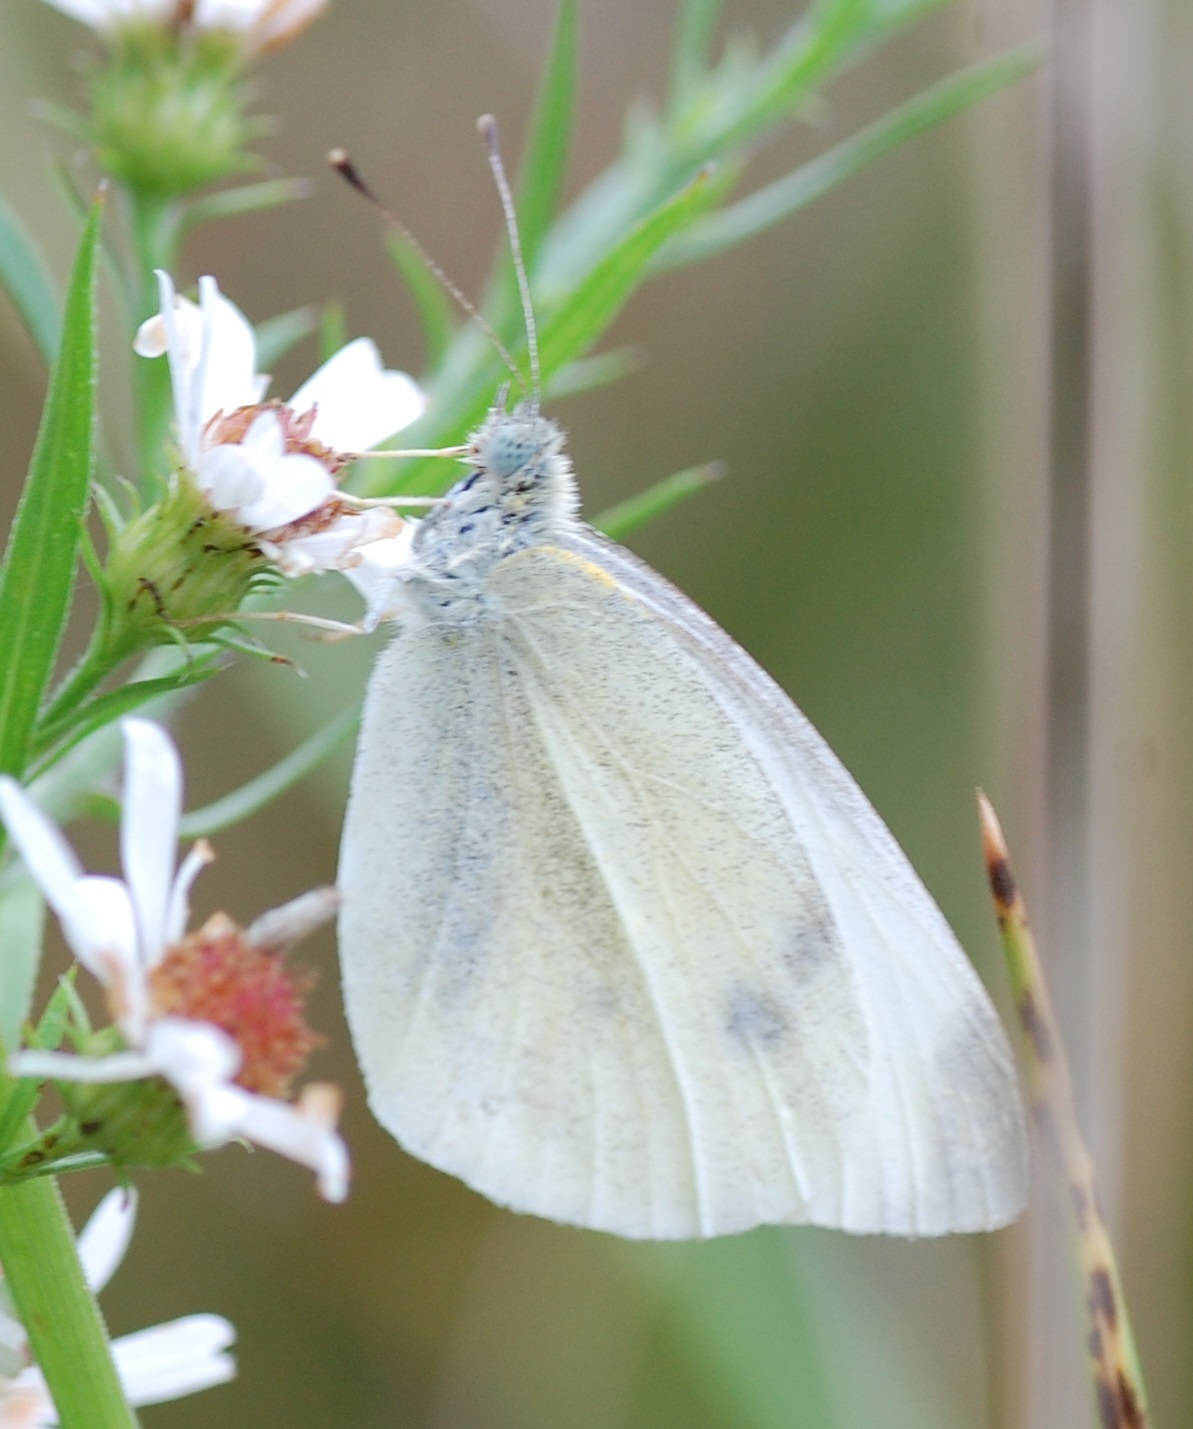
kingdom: Animalia
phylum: Arthropoda
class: Insecta
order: Lepidoptera
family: Pieridae
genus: Pieris
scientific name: Pieris rapae
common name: Small white
